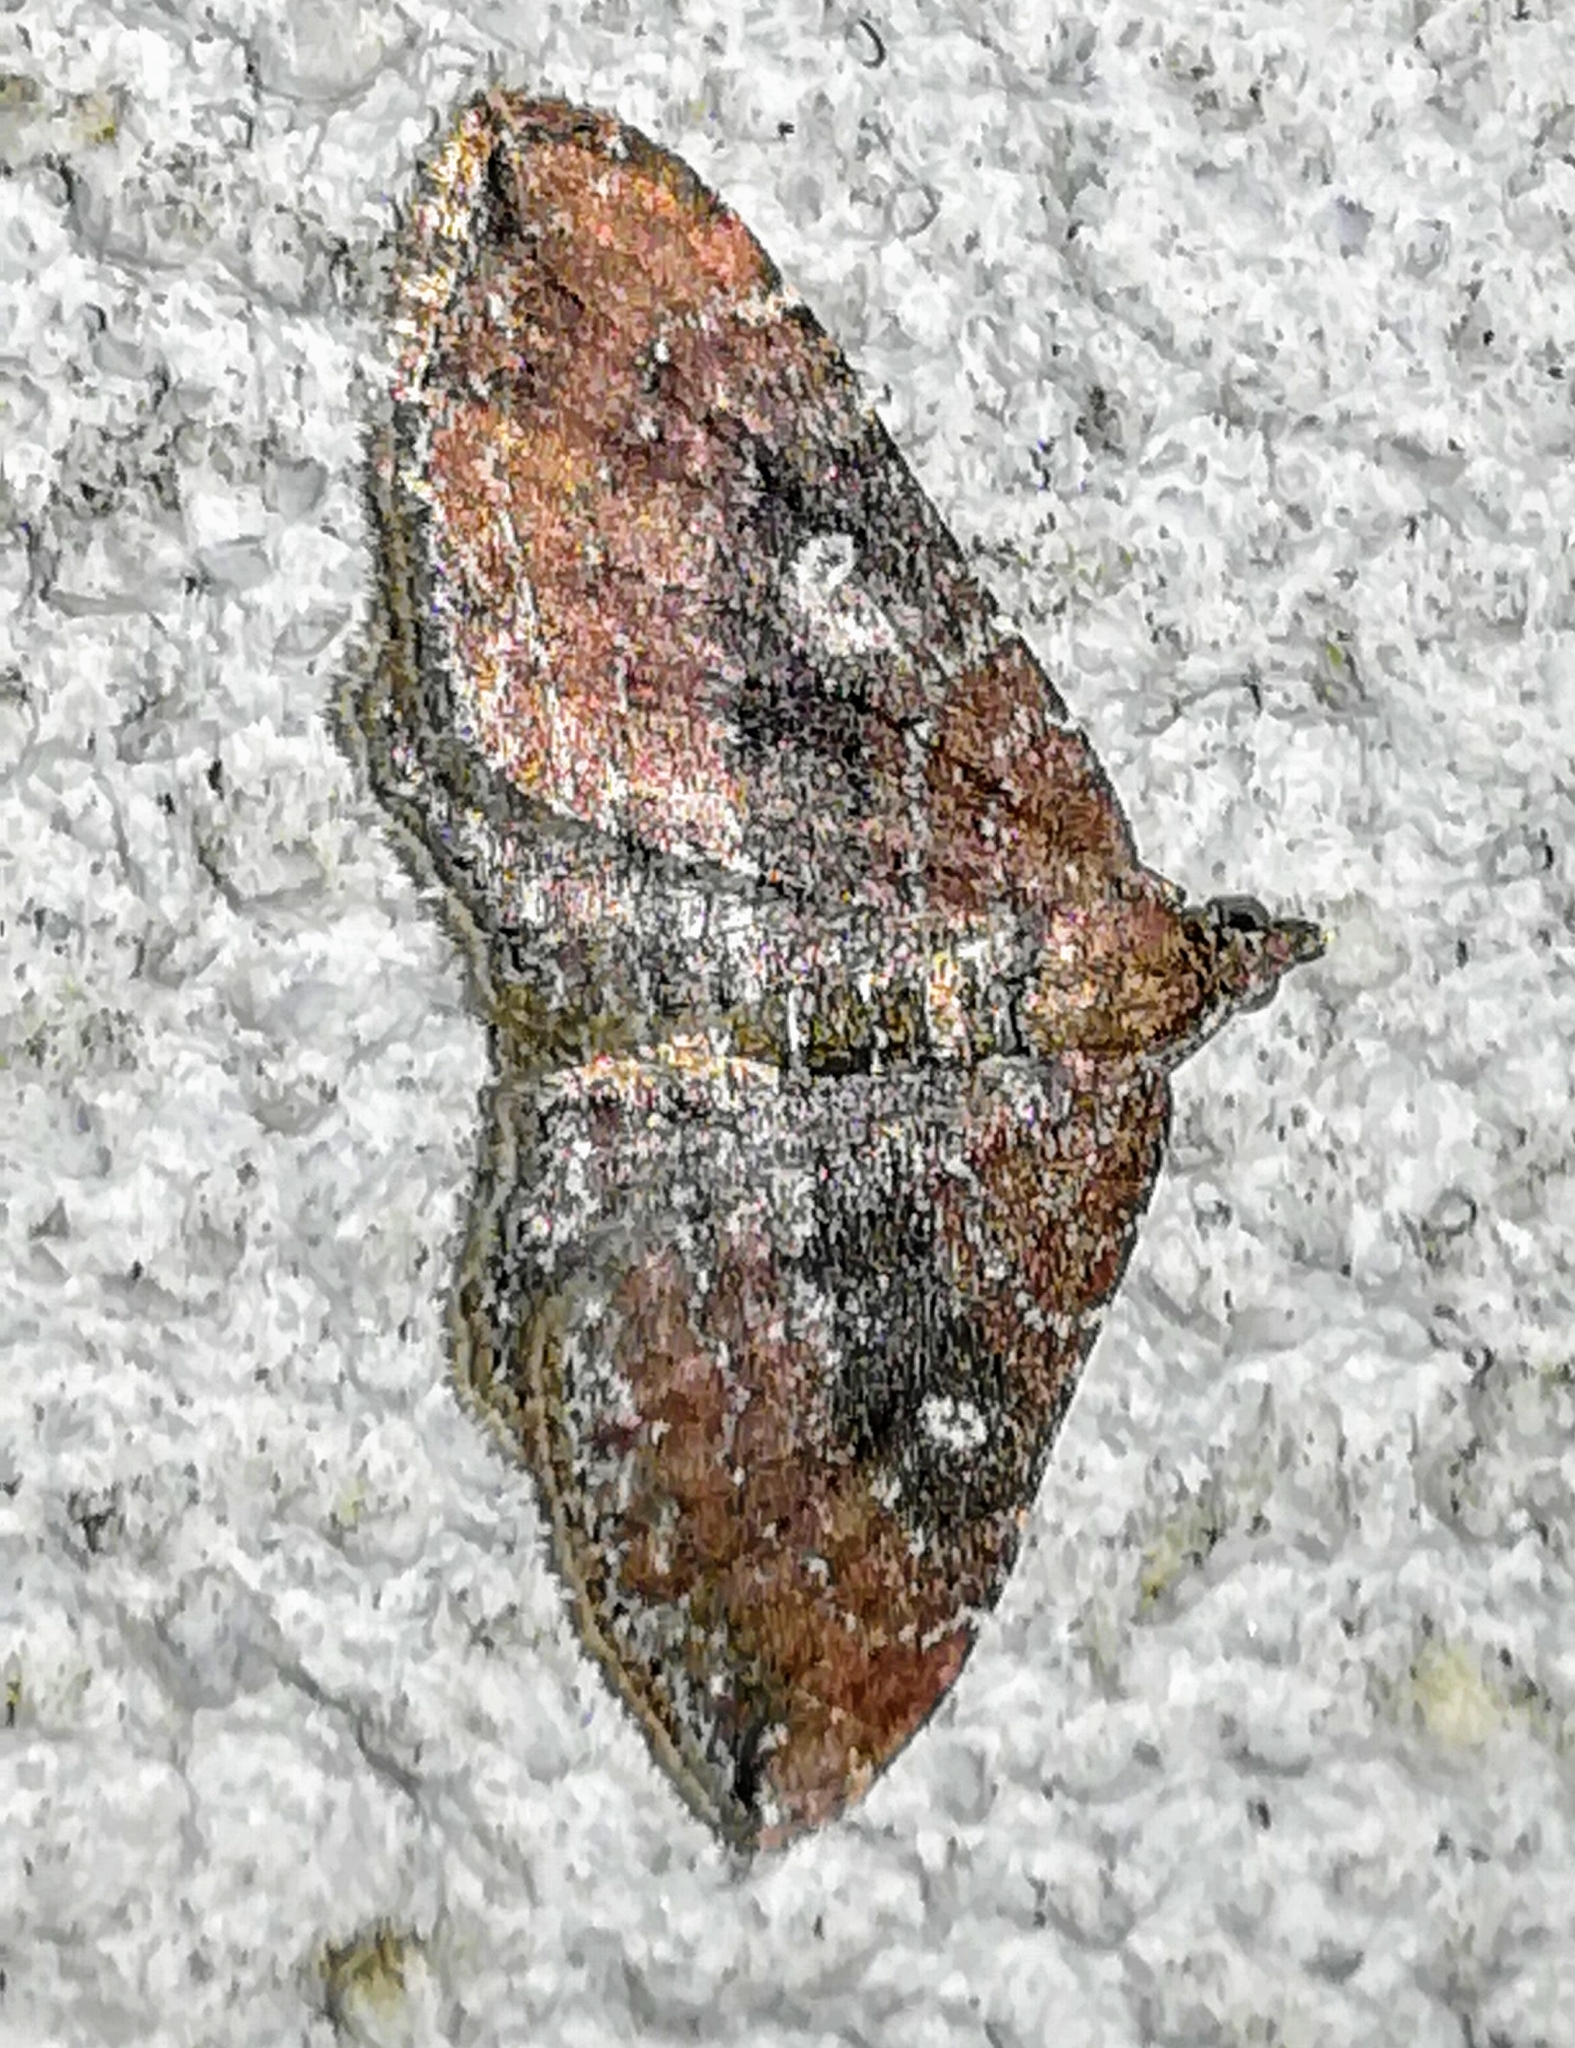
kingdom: Animalia
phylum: Arthropoda
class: Insecta
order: Lepidoptera
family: Geometridae
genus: Orthonama
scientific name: Orthonama obstipata
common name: The gem
